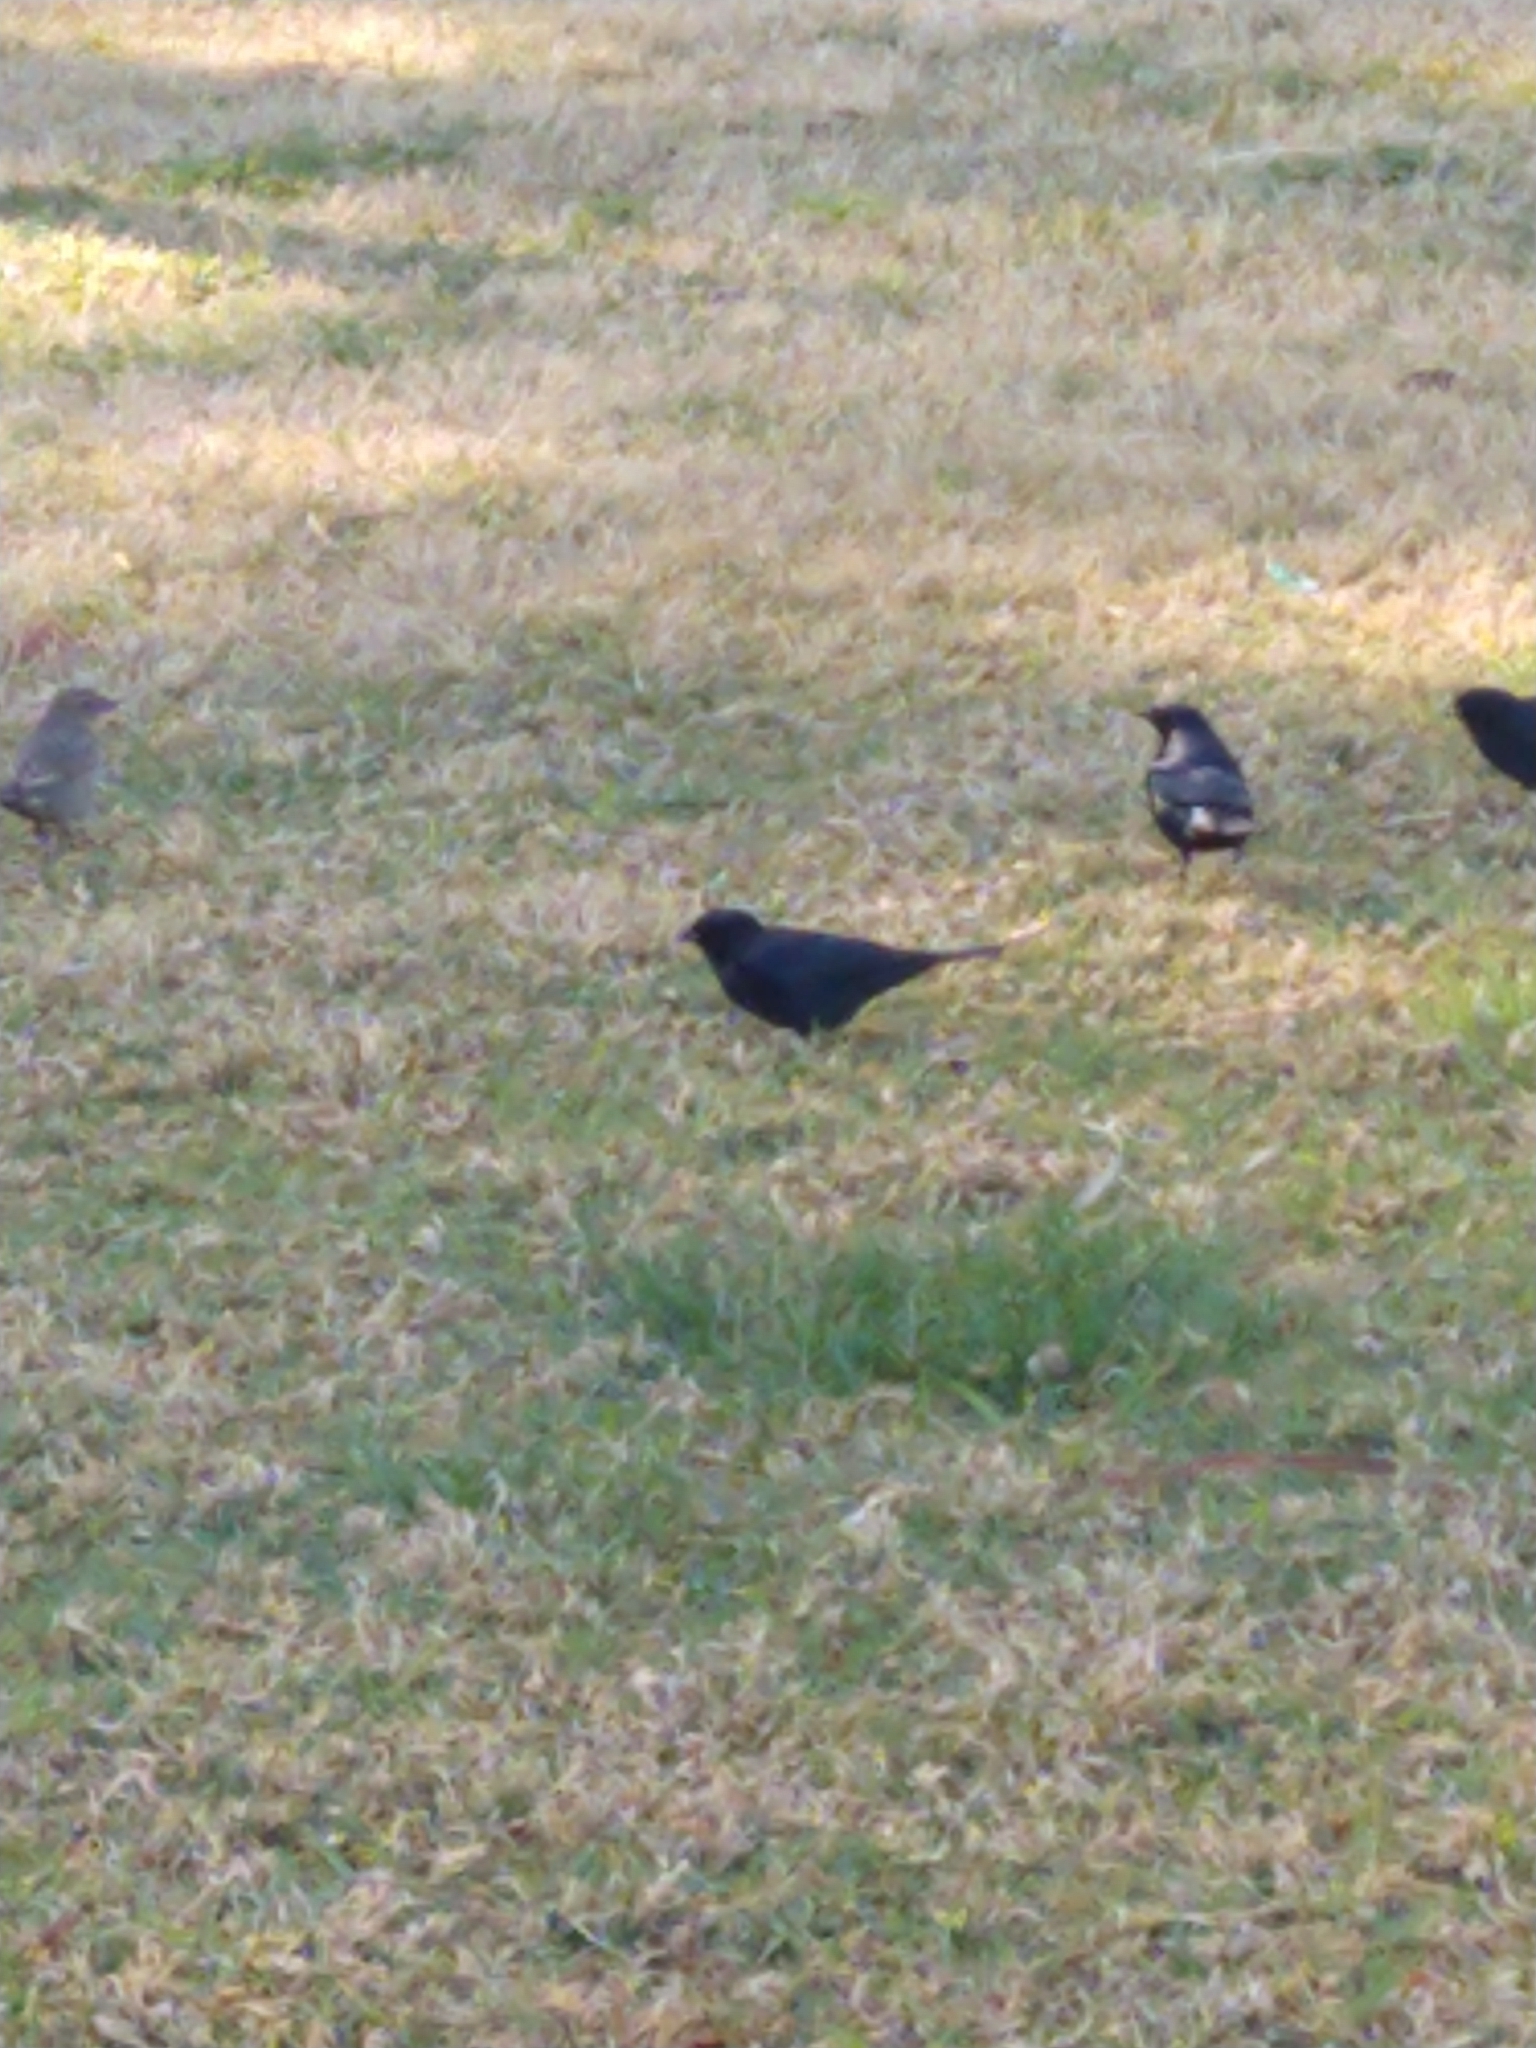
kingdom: Animalia
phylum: Chordata
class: Aves
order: Passeriformes
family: Icteridae
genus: Molothrus
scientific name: Molothrus bonariensis
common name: Shiny cowbird
